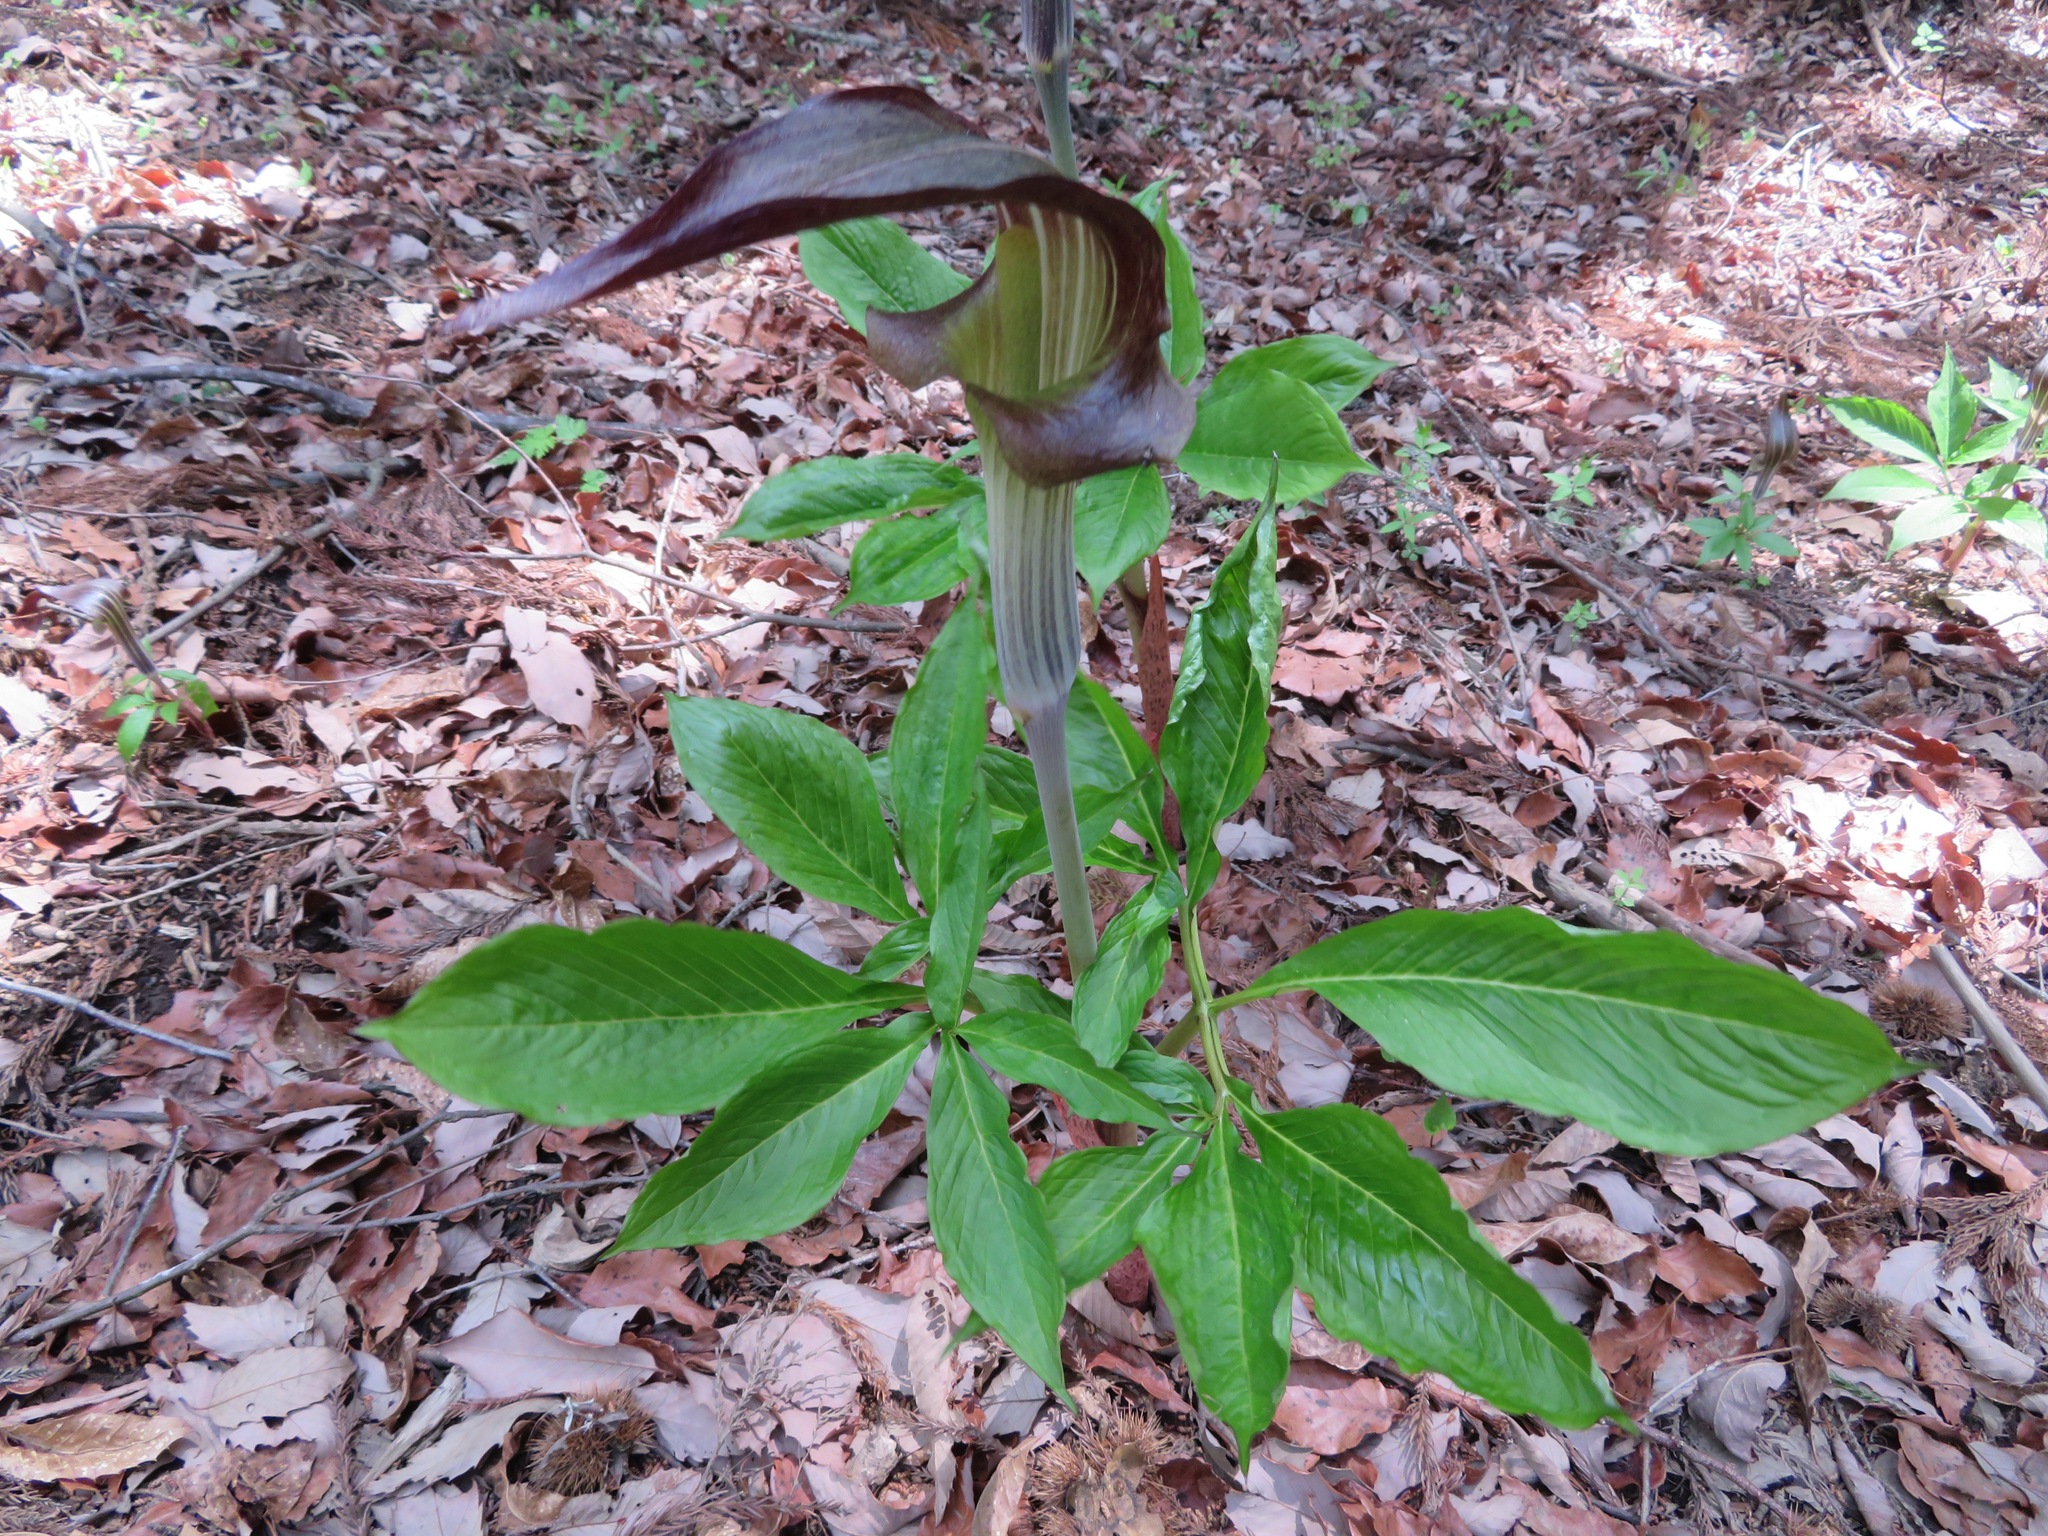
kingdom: Plantae
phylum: Tracheophyta
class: Liliopsida
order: Alismatales
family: Araceae
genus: Arisaema
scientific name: Arisaema limbatum
